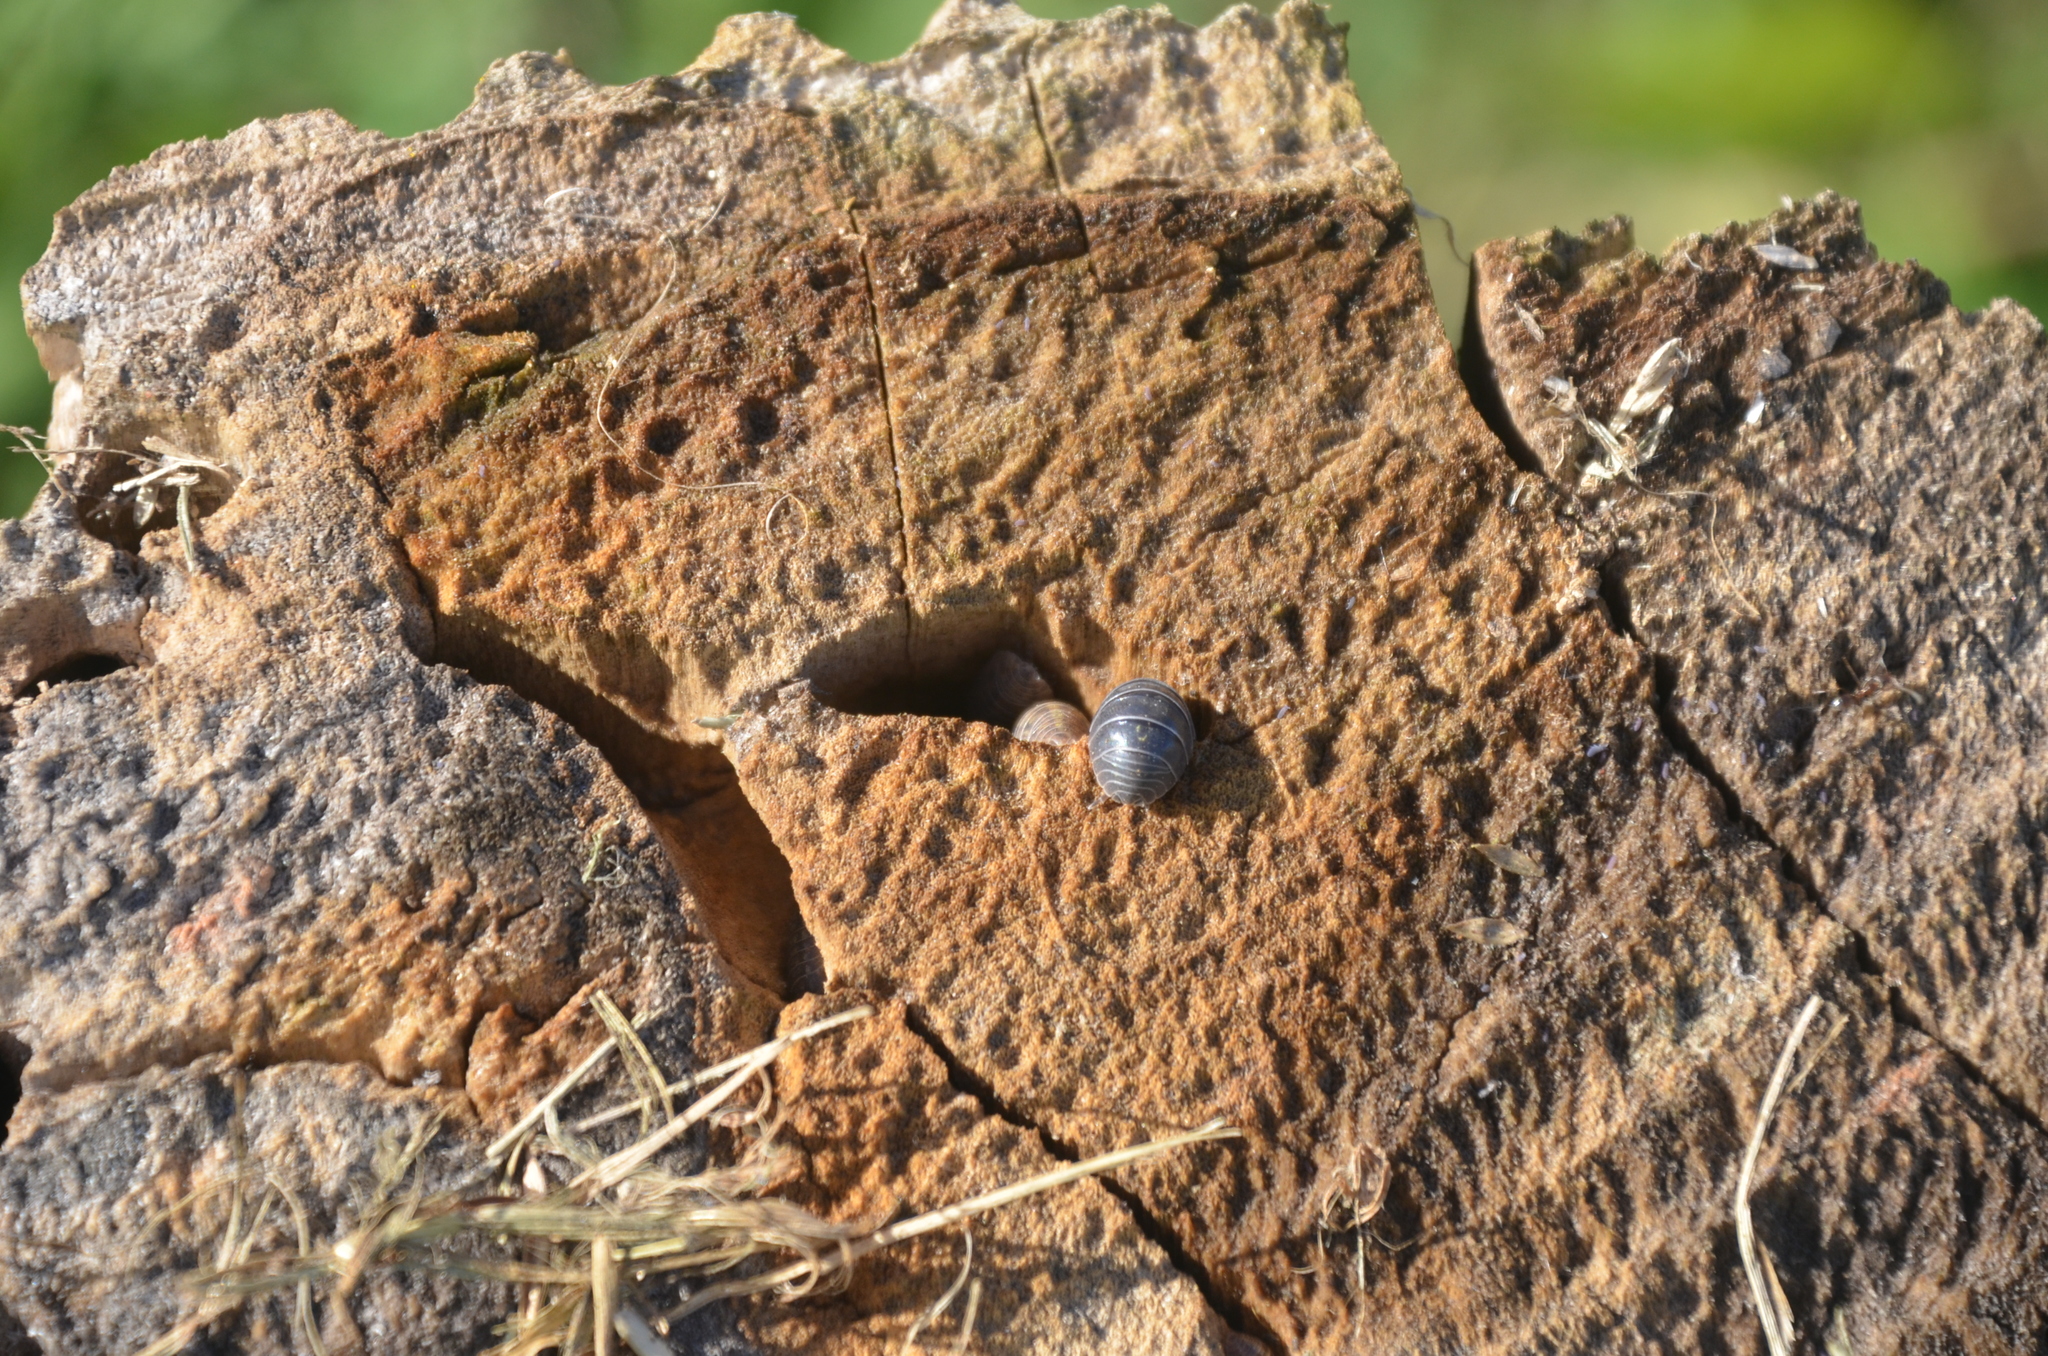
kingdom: Animalia
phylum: Arthropoda
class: Malacostraca
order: Isopoda
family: Armadillidiidae
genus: Armadillidium
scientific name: Armadillidium vulgare
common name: Common pill woodlouse
